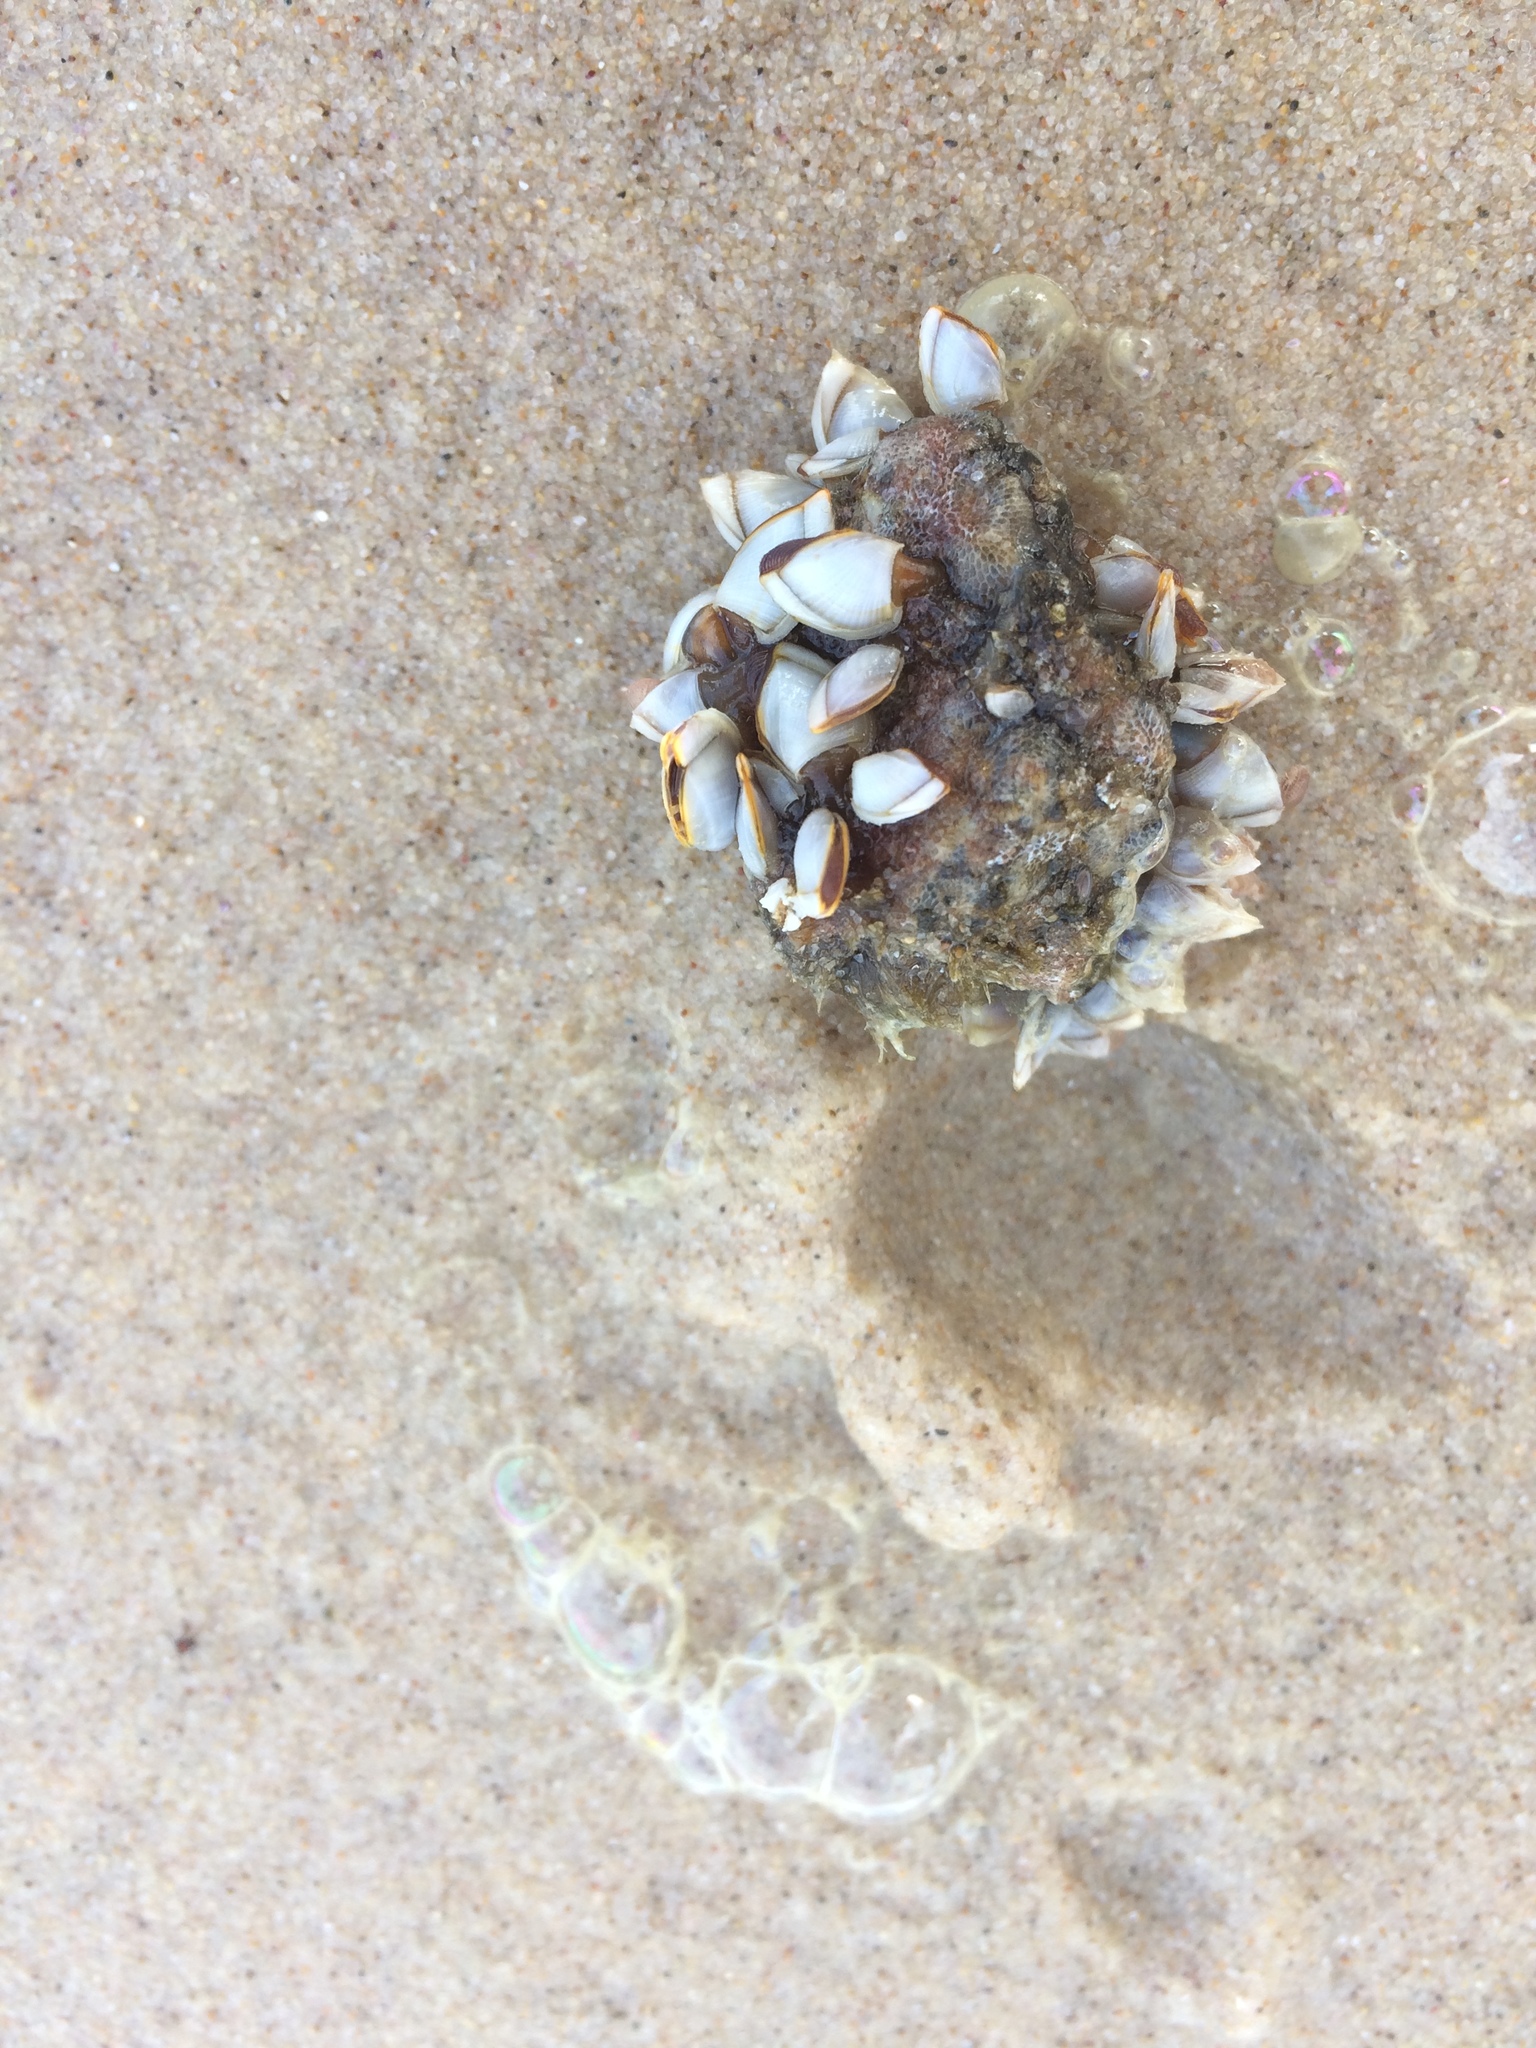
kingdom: Animalia
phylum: Arthropoda
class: Maxillopoda
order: Pedunculata
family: Lepadidae
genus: Lepas
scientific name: Lepas anserifera
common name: Goose barnacle
